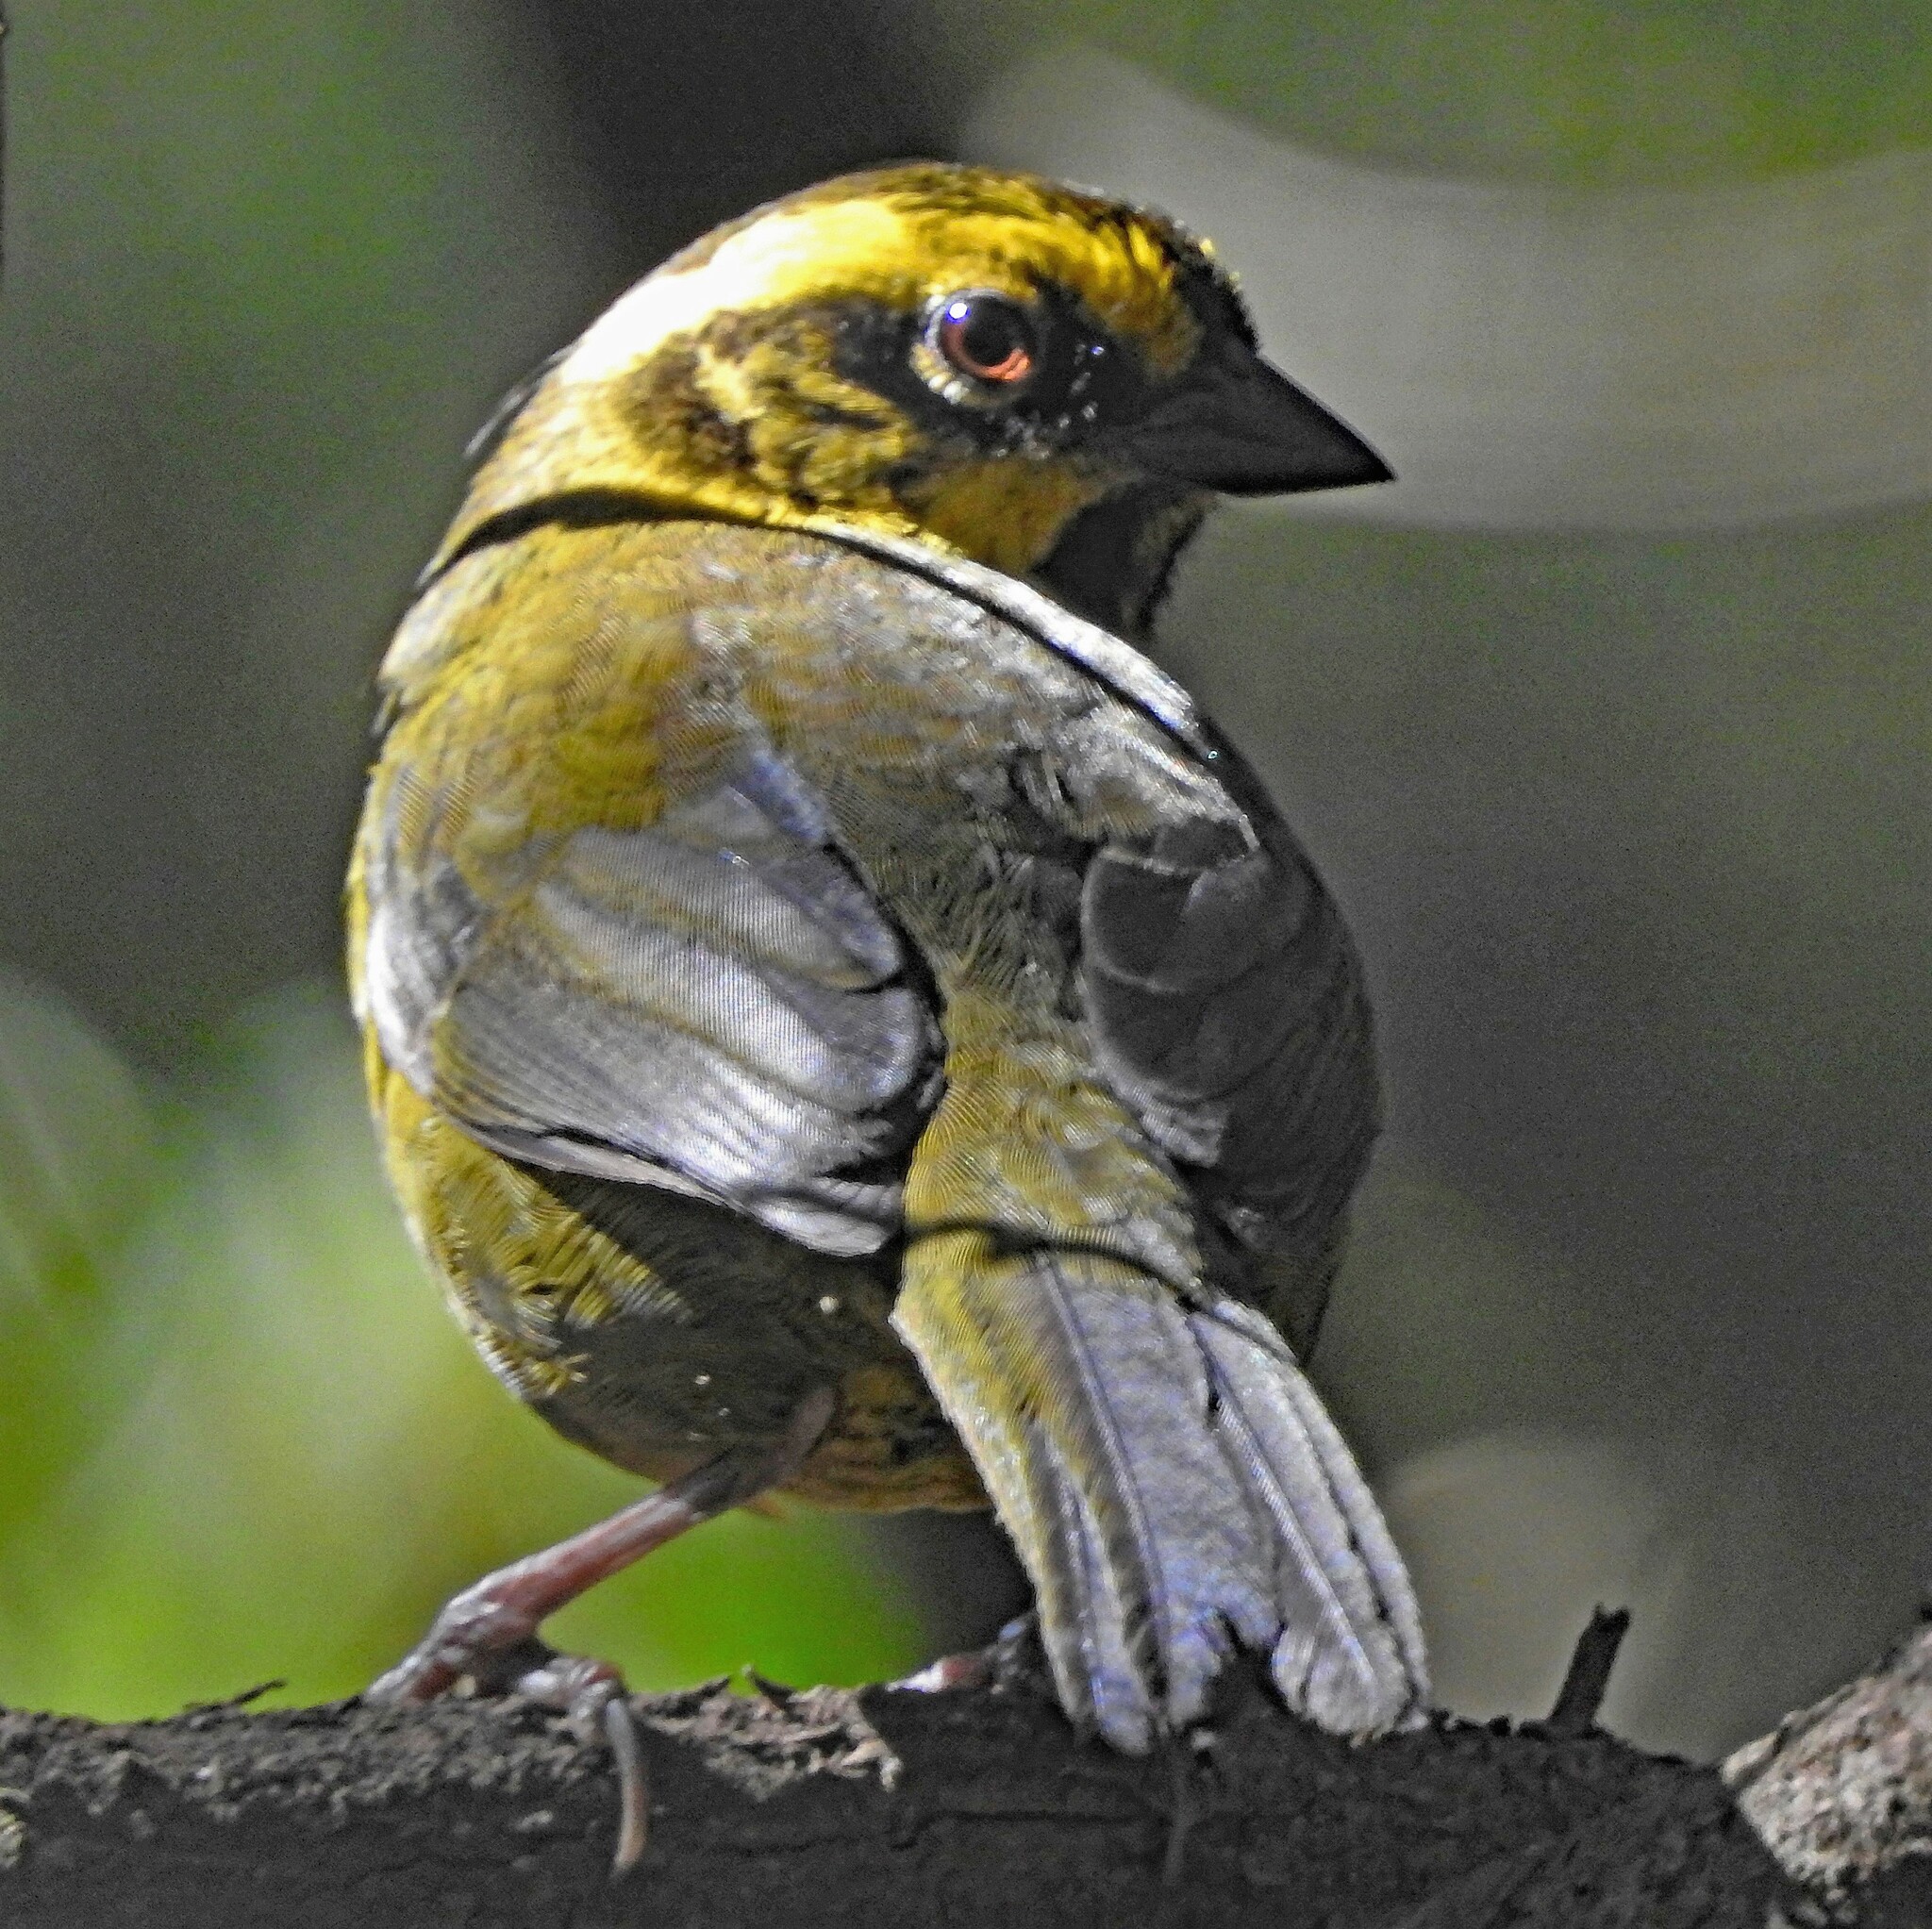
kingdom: Animalia
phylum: Chordata
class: Aves
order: Passeriformes
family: Passerellidae
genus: Atlapetes
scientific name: Atlapetes citrinellus
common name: Yellow-striped brushfinch
